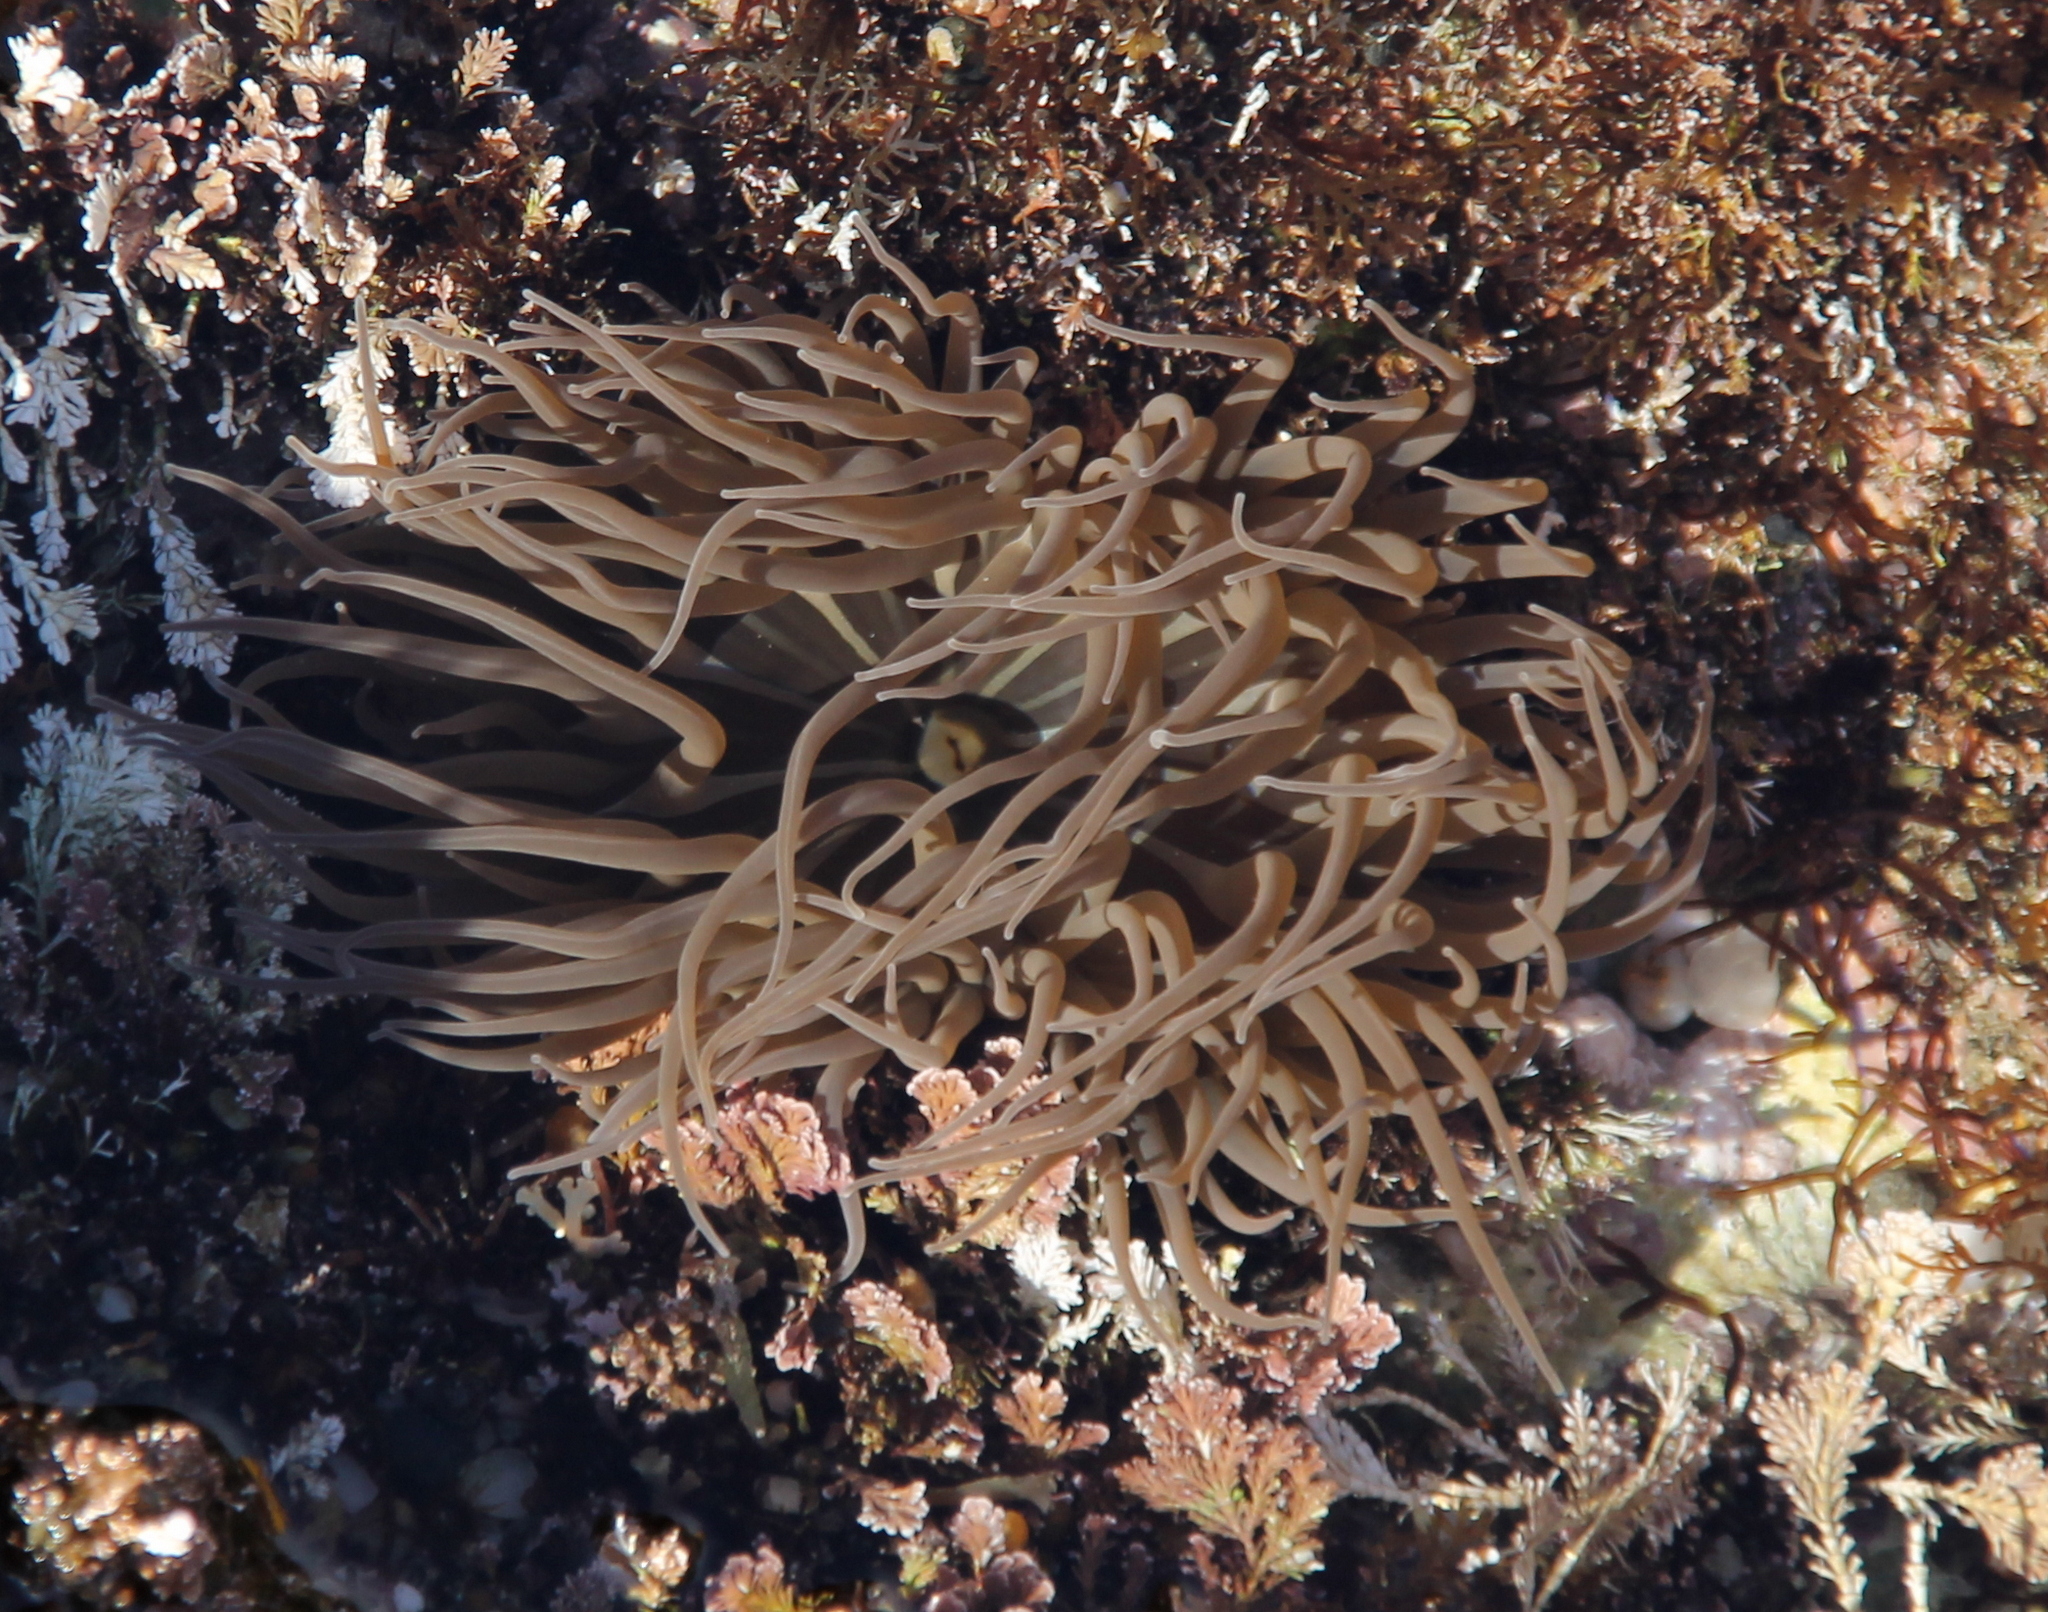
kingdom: Animalia
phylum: Cnidaria
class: Anthozoa
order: Actiniaria
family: Actiniidae
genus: Anemonia
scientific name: Anemonia viridis
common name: Snakelocks anemone
